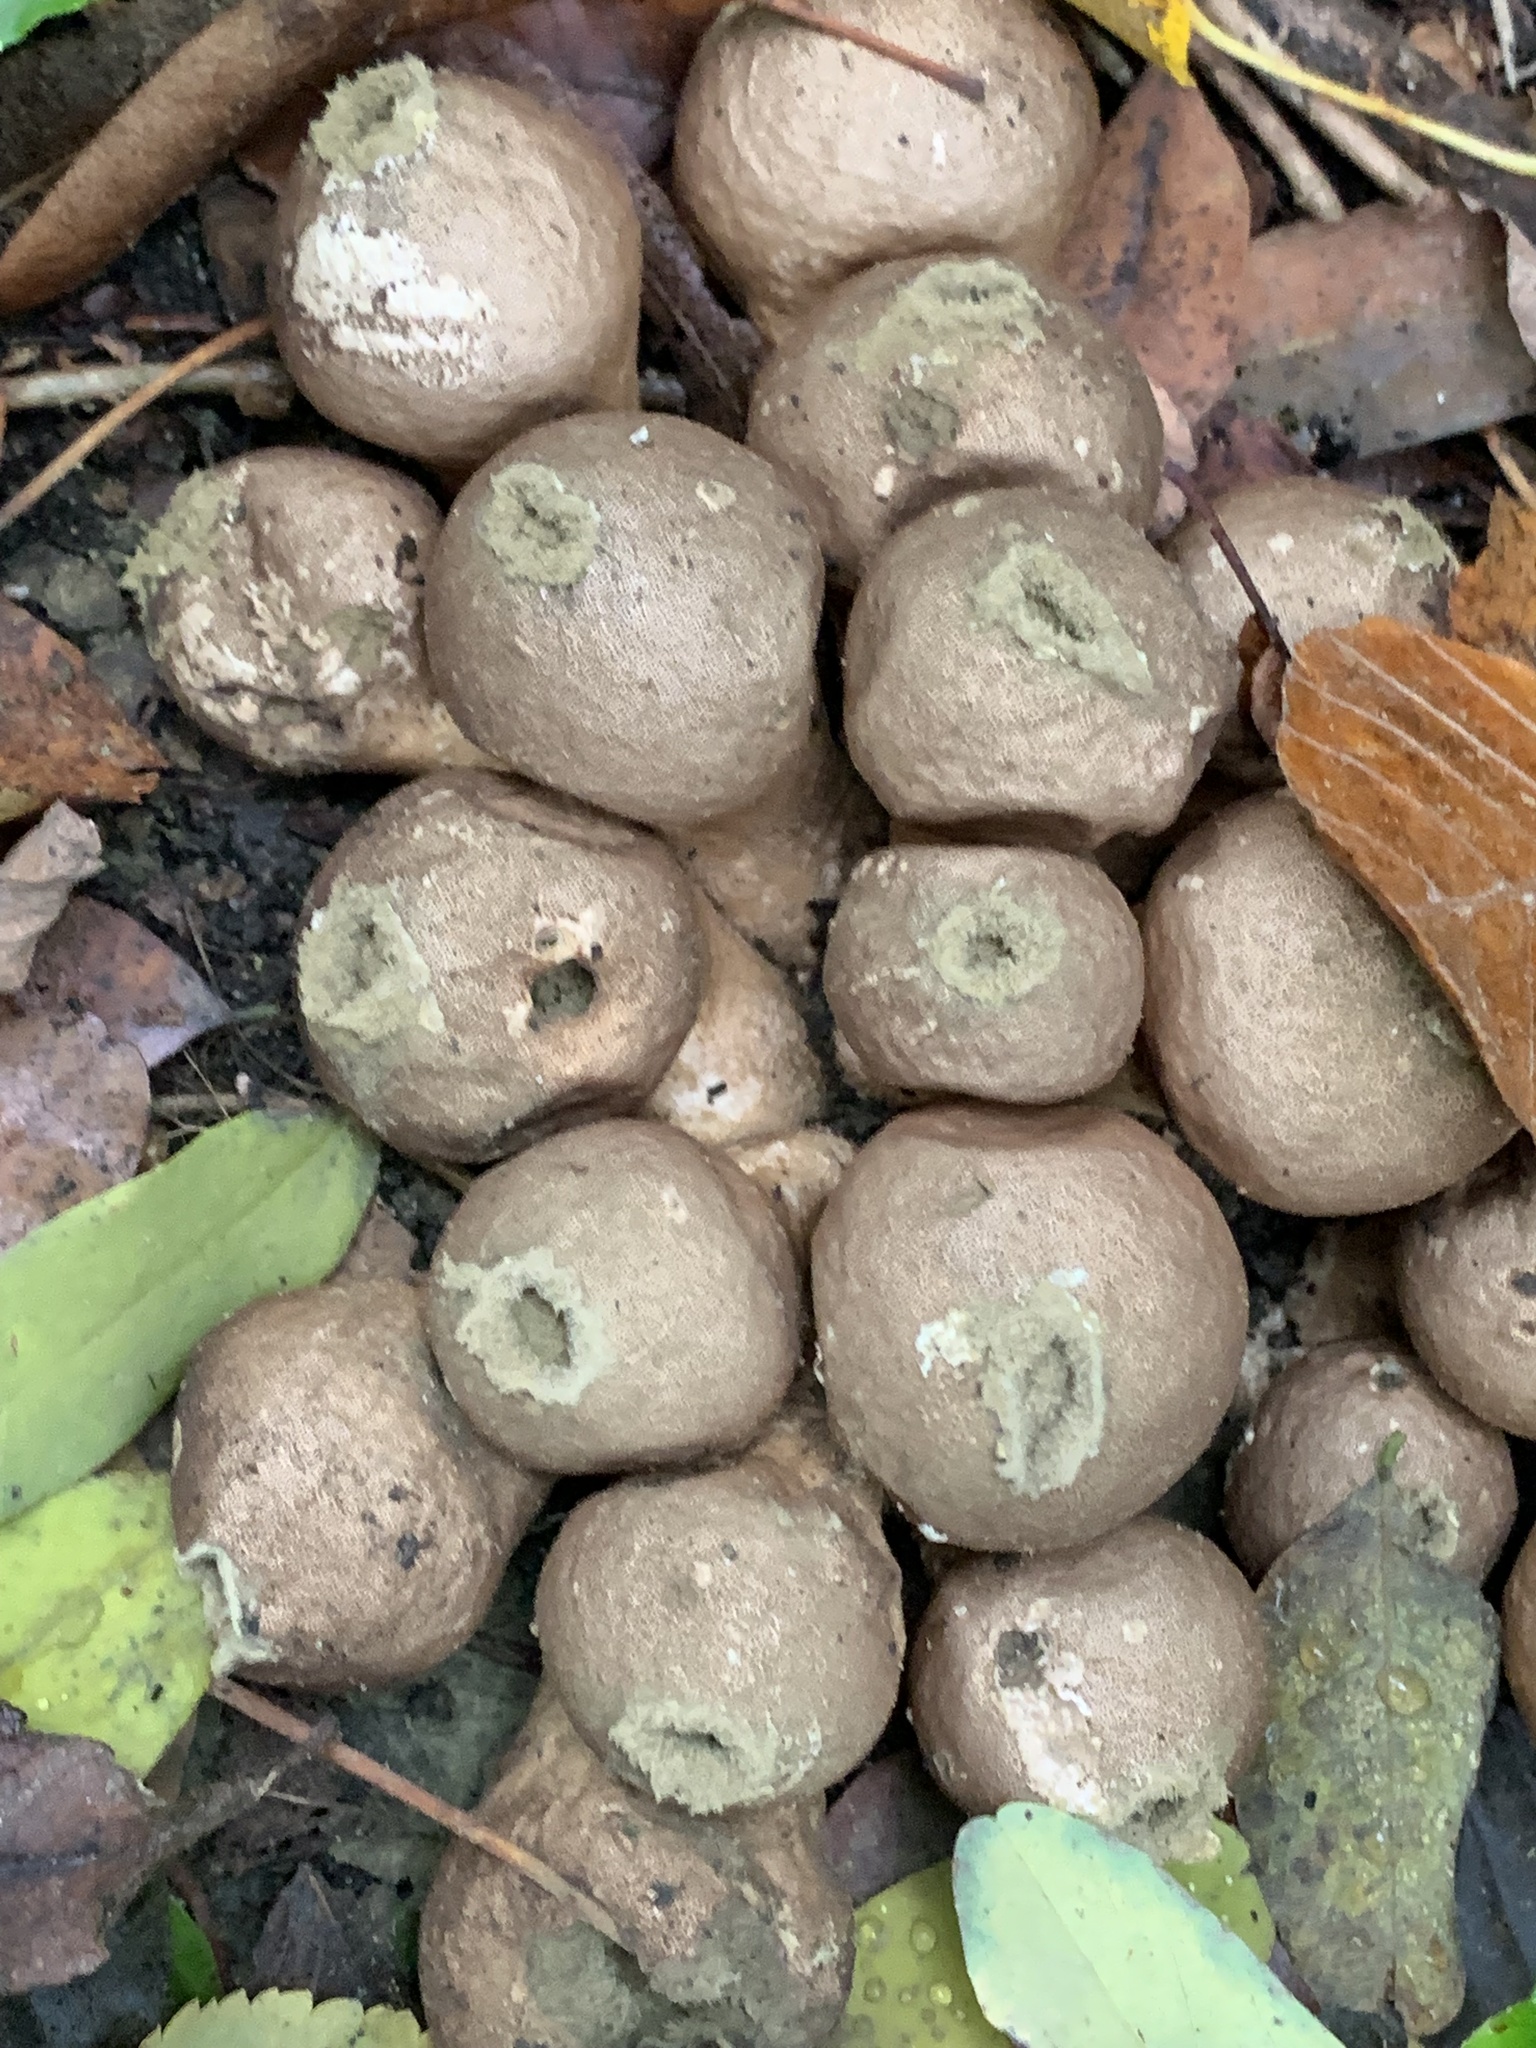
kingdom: Fungi
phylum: Basidiomycota
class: Agaricomycetes
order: Agaricales
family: Lycoperdaceae
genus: Apioperdon
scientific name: Apioperdon pyriforme
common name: Pear-shaped puffball
